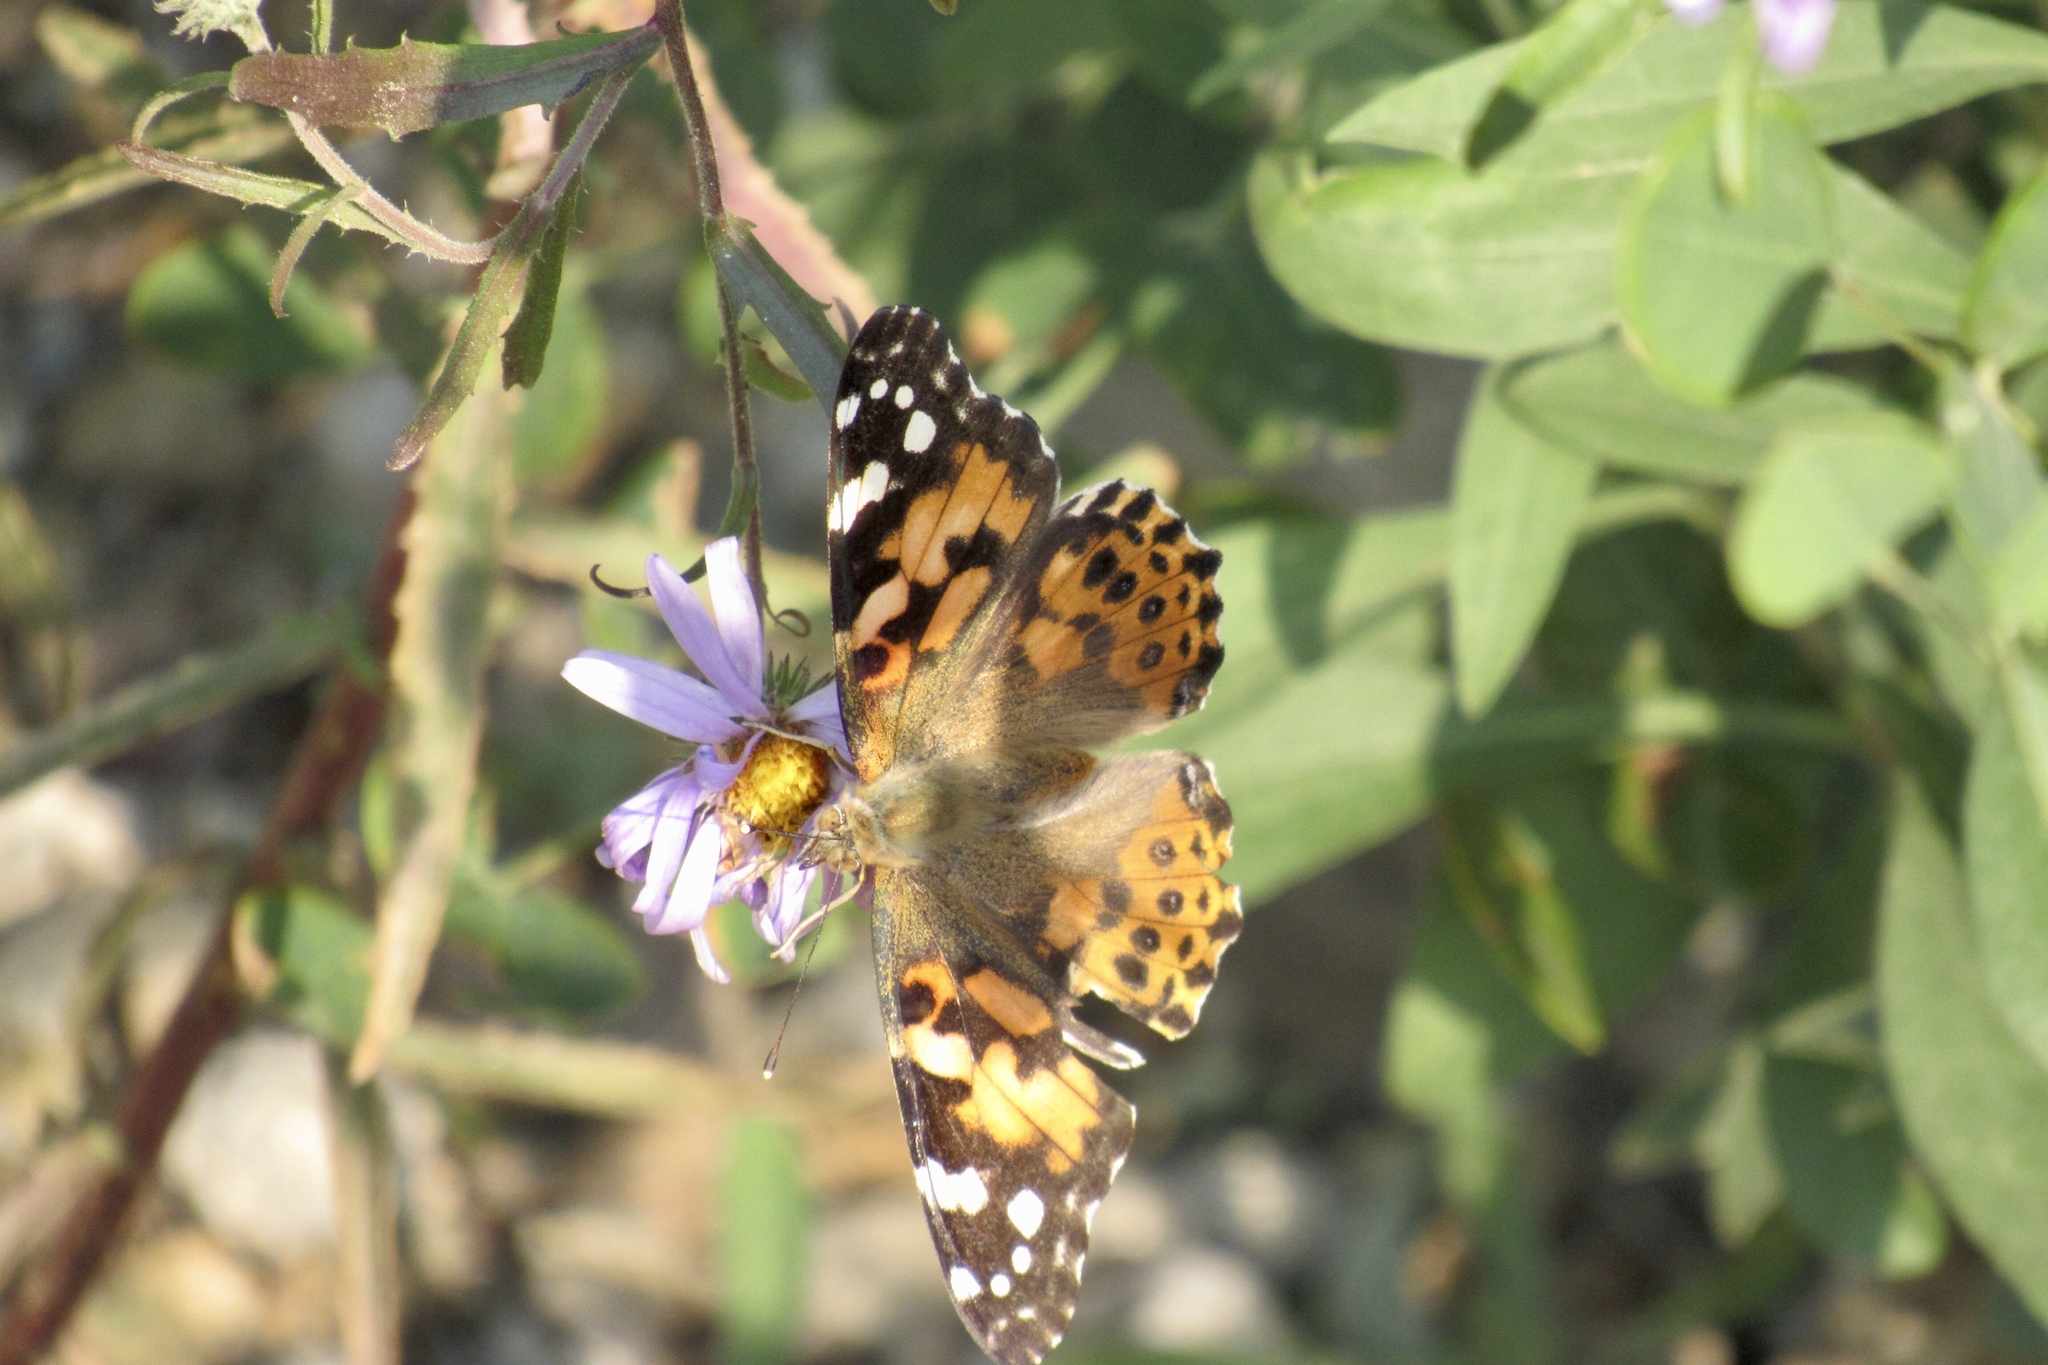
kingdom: Animalia
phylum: Arthropoda
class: Insecta
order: Lepidoptera
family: Nymphalidae
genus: Vanessa
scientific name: Vanessa cardui
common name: Painted lady
